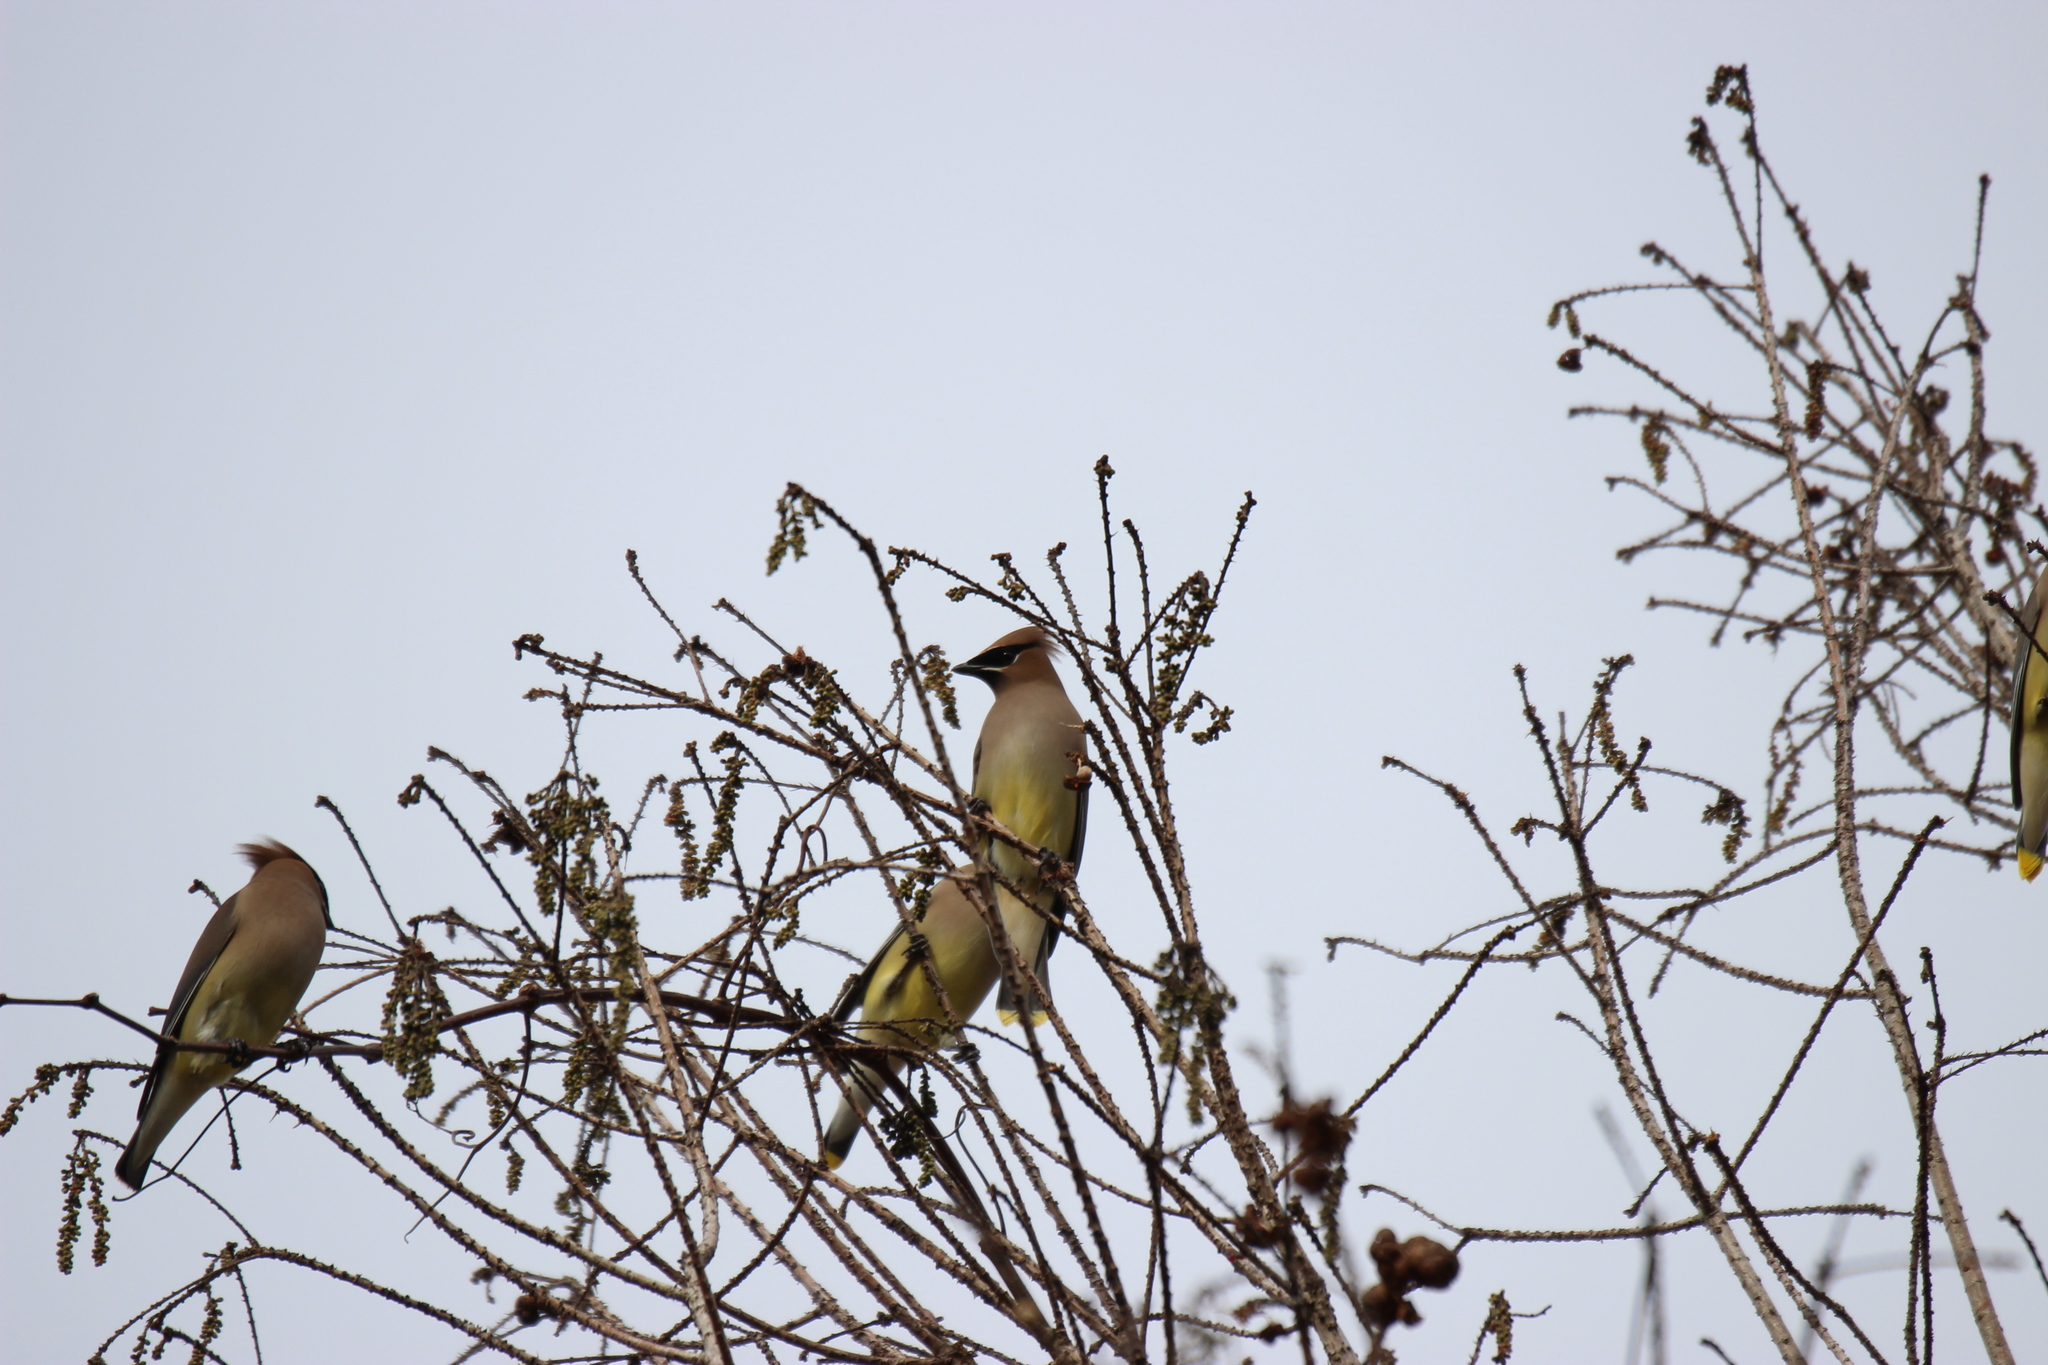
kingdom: Animalia
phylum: Chordata
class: Aves
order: Passeriformes
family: Bombycillidae
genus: Bombycilla
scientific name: Bombycilla cedrorum
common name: Cedar waxwing
